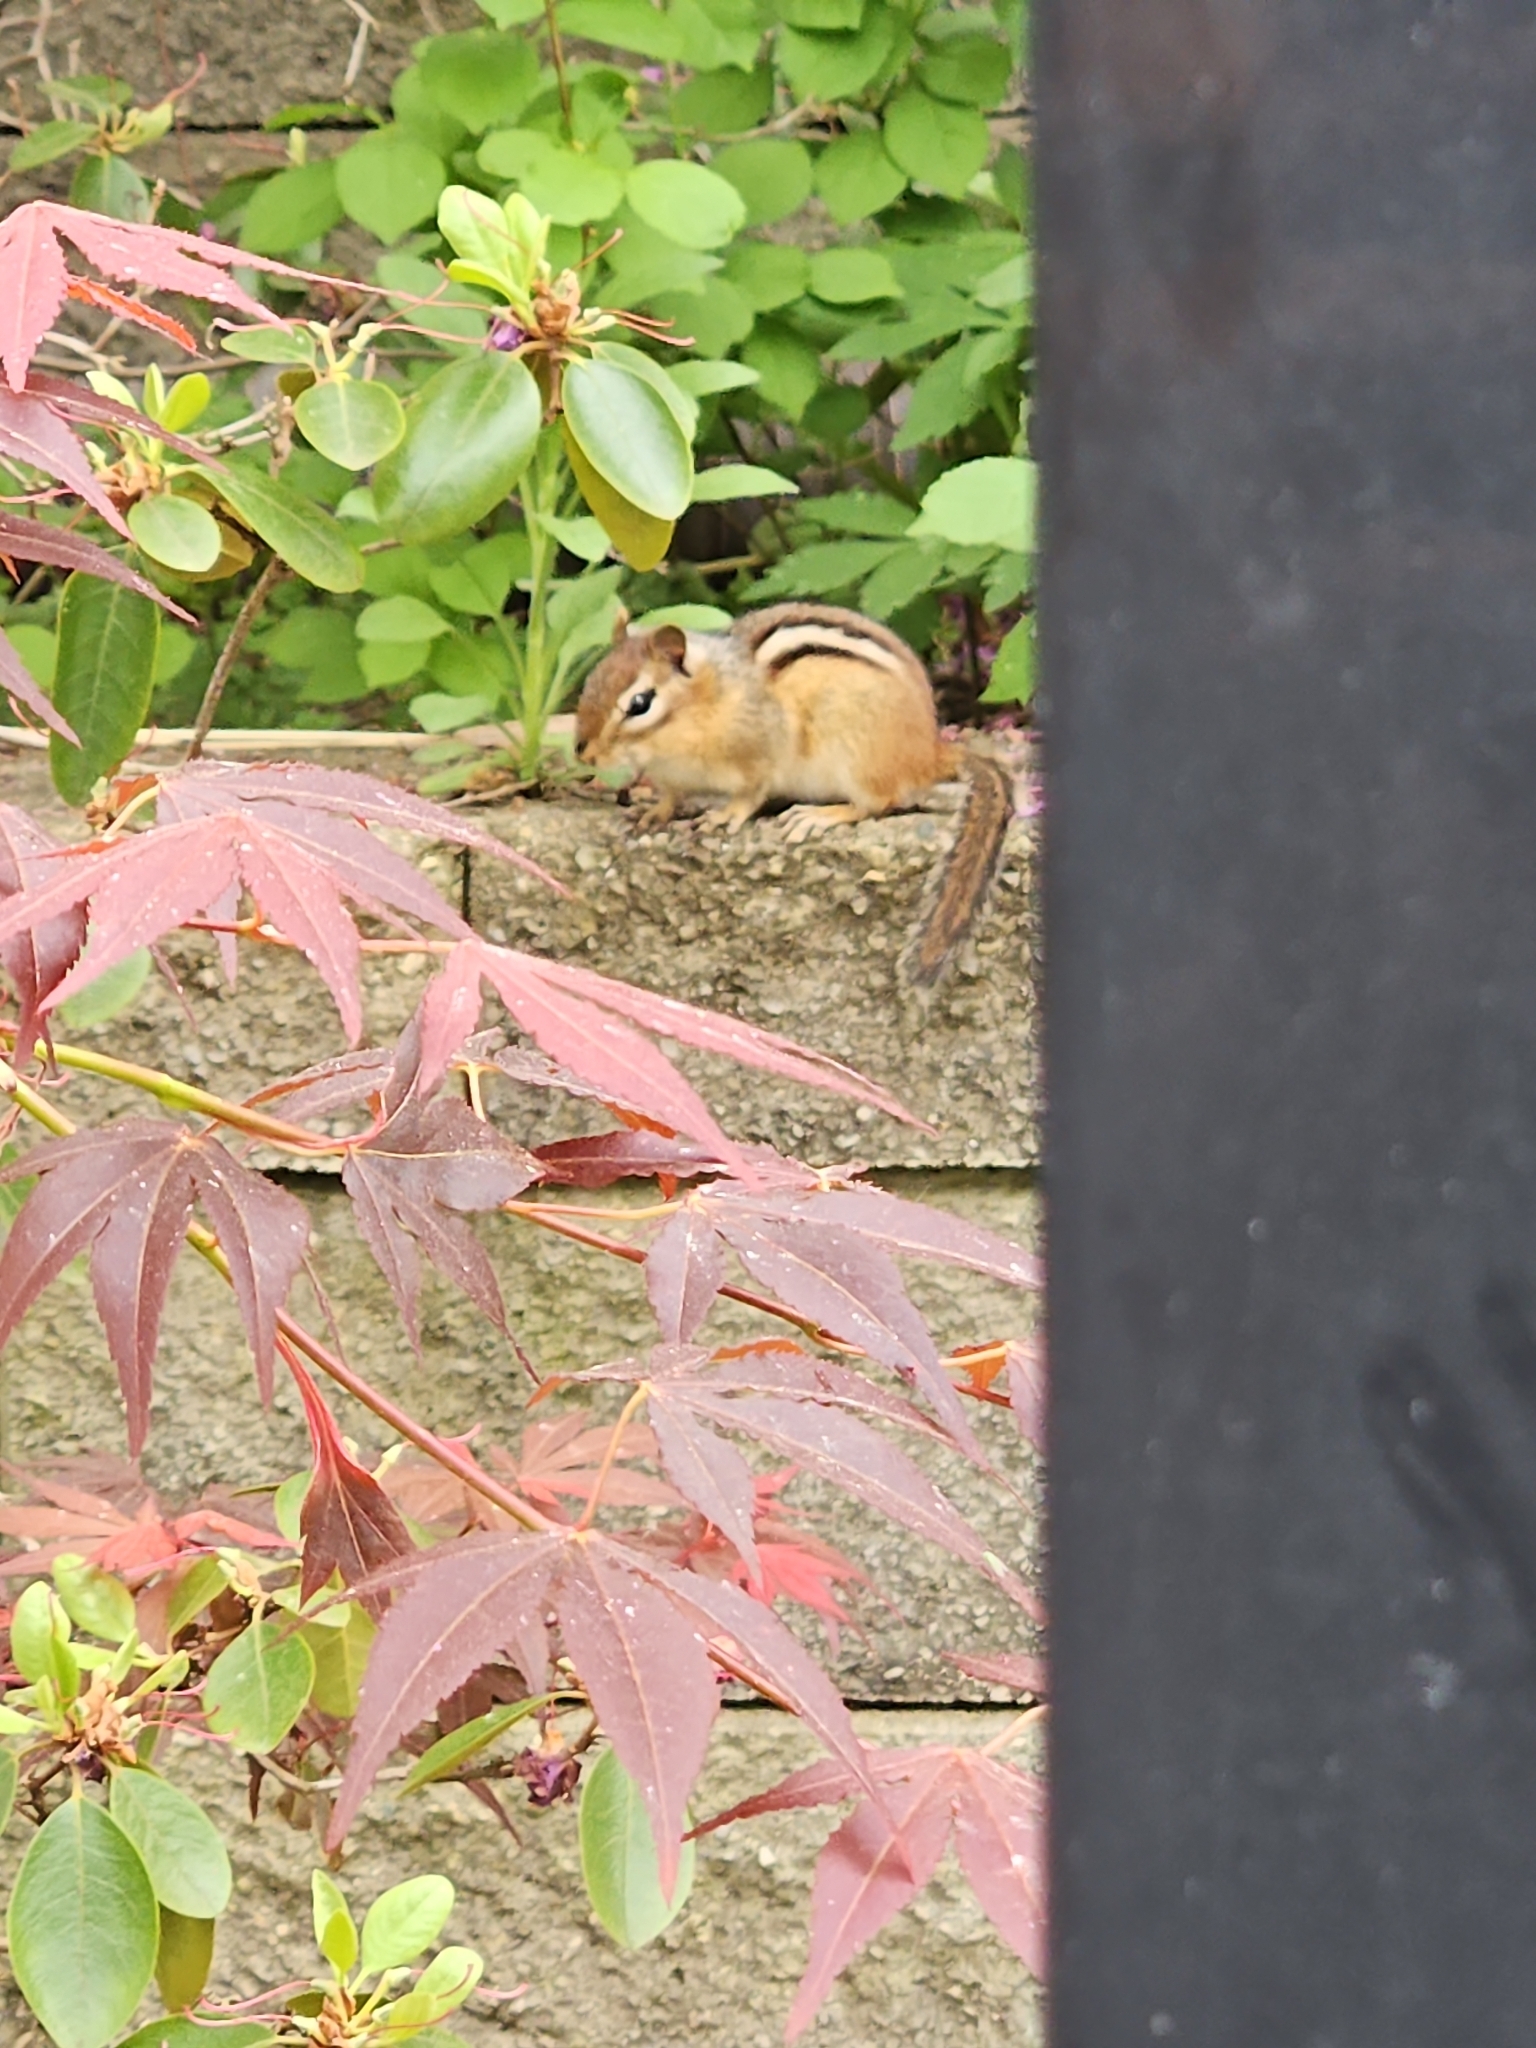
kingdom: Animalia
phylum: Chordata
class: Mammalia
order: Rodentia
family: Sciuridae
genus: Tamias
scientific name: Tamias striatus
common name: Eastern chipmunk
